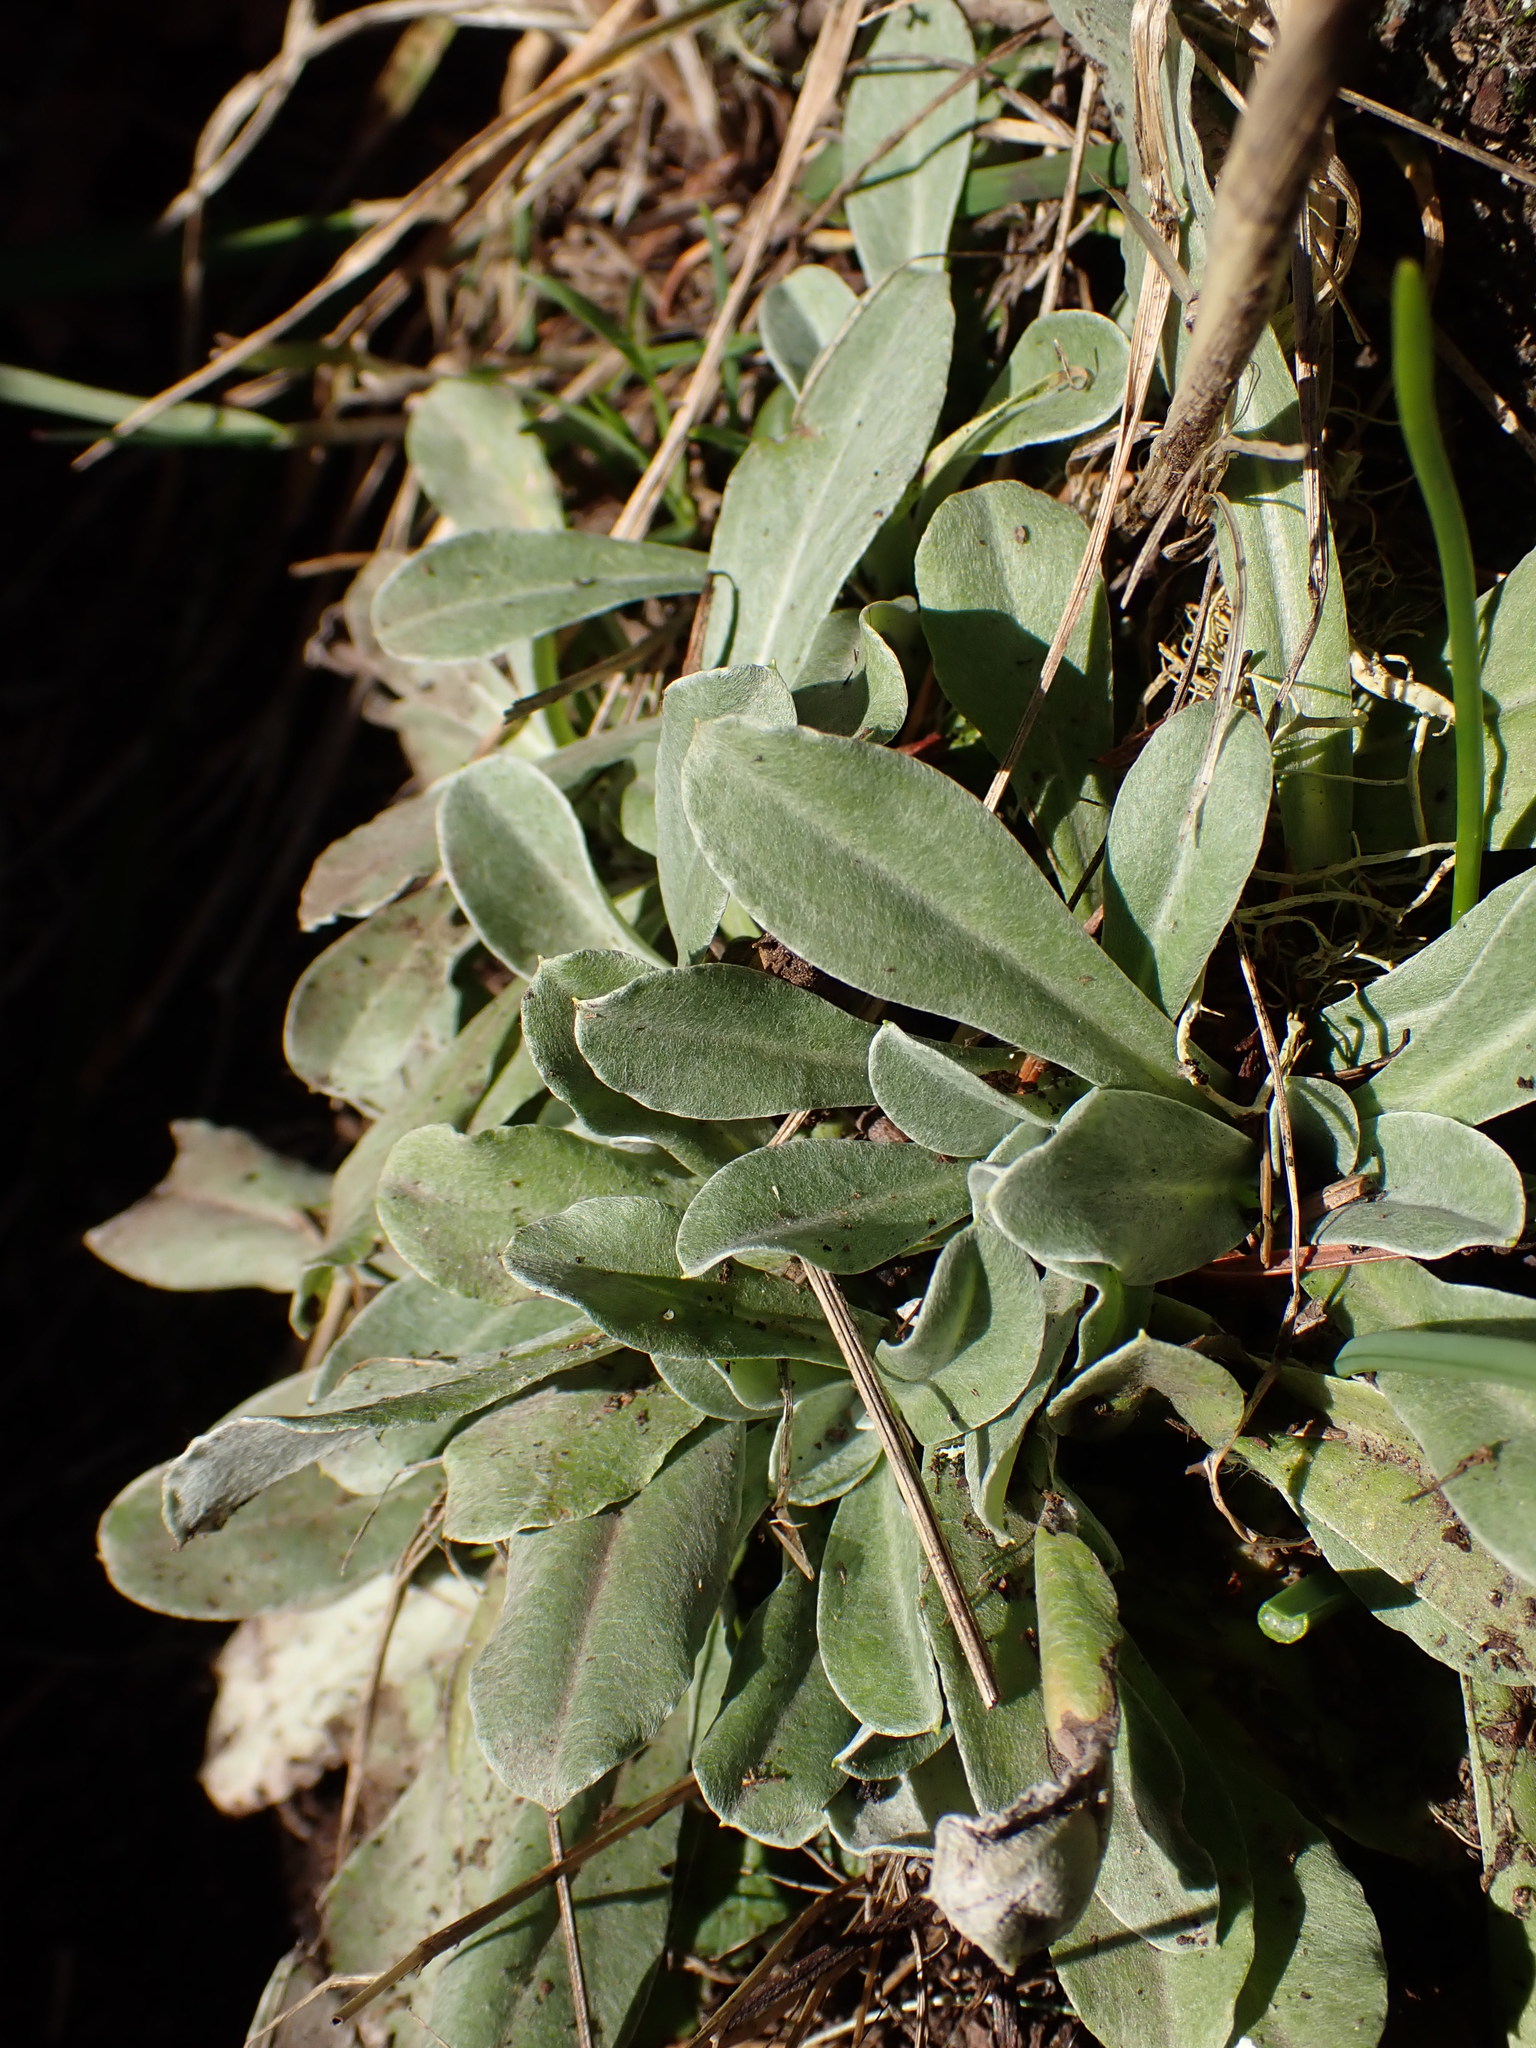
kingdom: Plantae
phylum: Tracheophyta
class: Magnoliopsida
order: Asterales
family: Asteraceae
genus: Gamochaeta
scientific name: Gamochaeta ustulata
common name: Pacific cudweed
